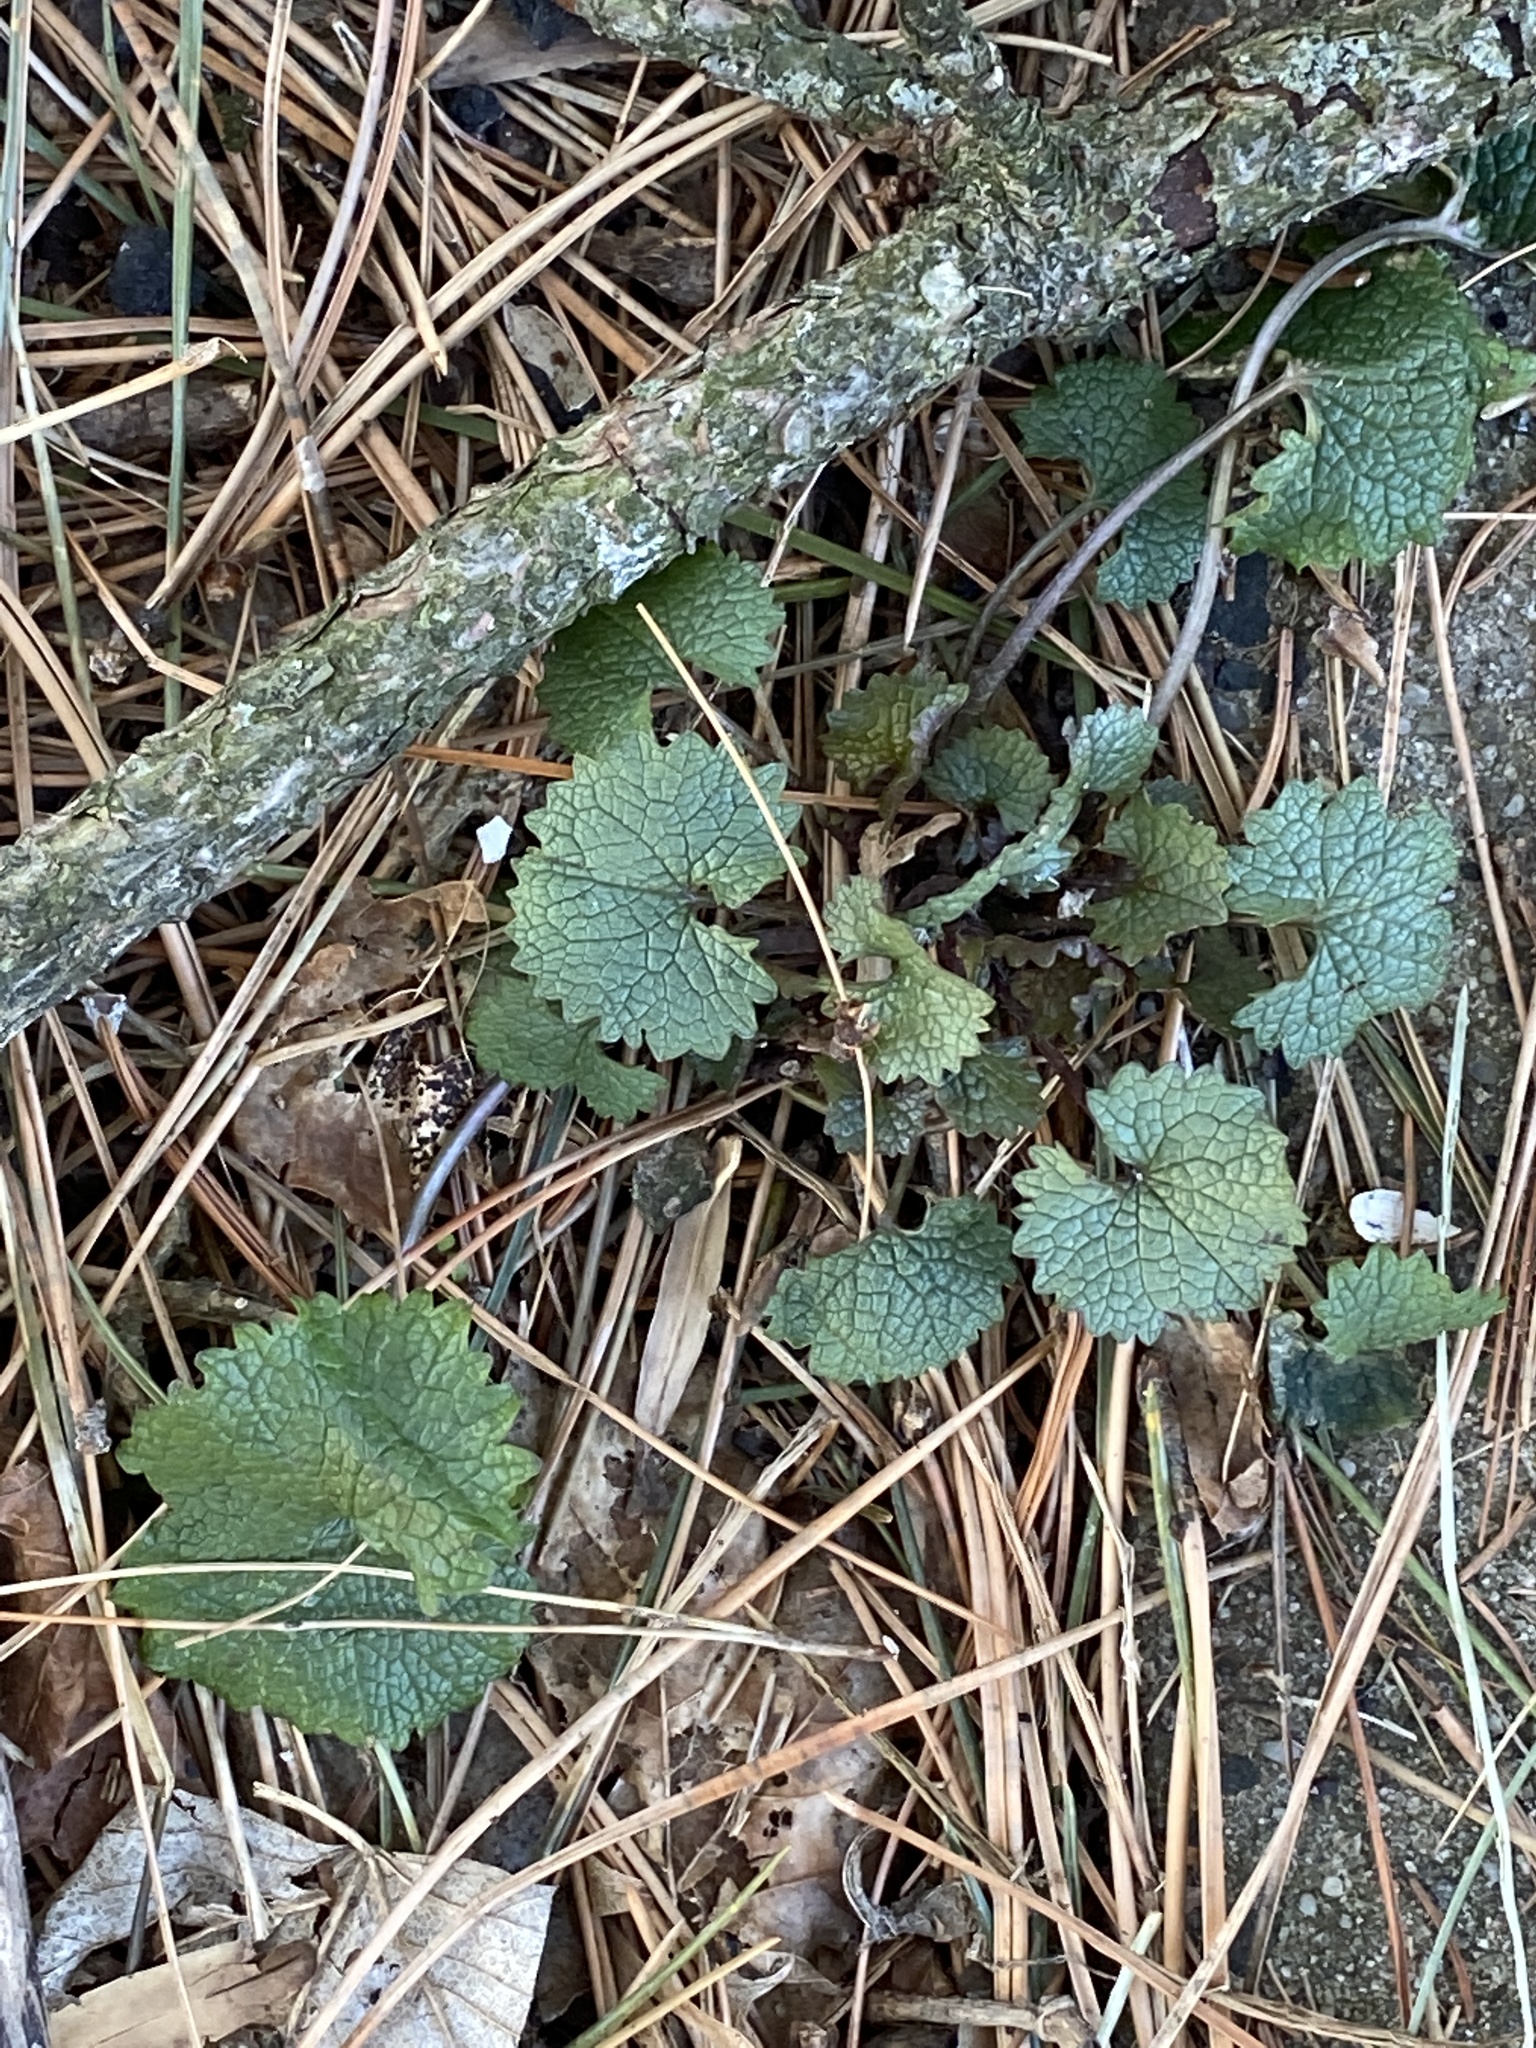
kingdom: Plantae
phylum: Tracheophyta
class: Magnoliopsida
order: Brassicales
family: Brassicaceae
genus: Alliaria
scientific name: Alliaria petiolata
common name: Garlic mustard
